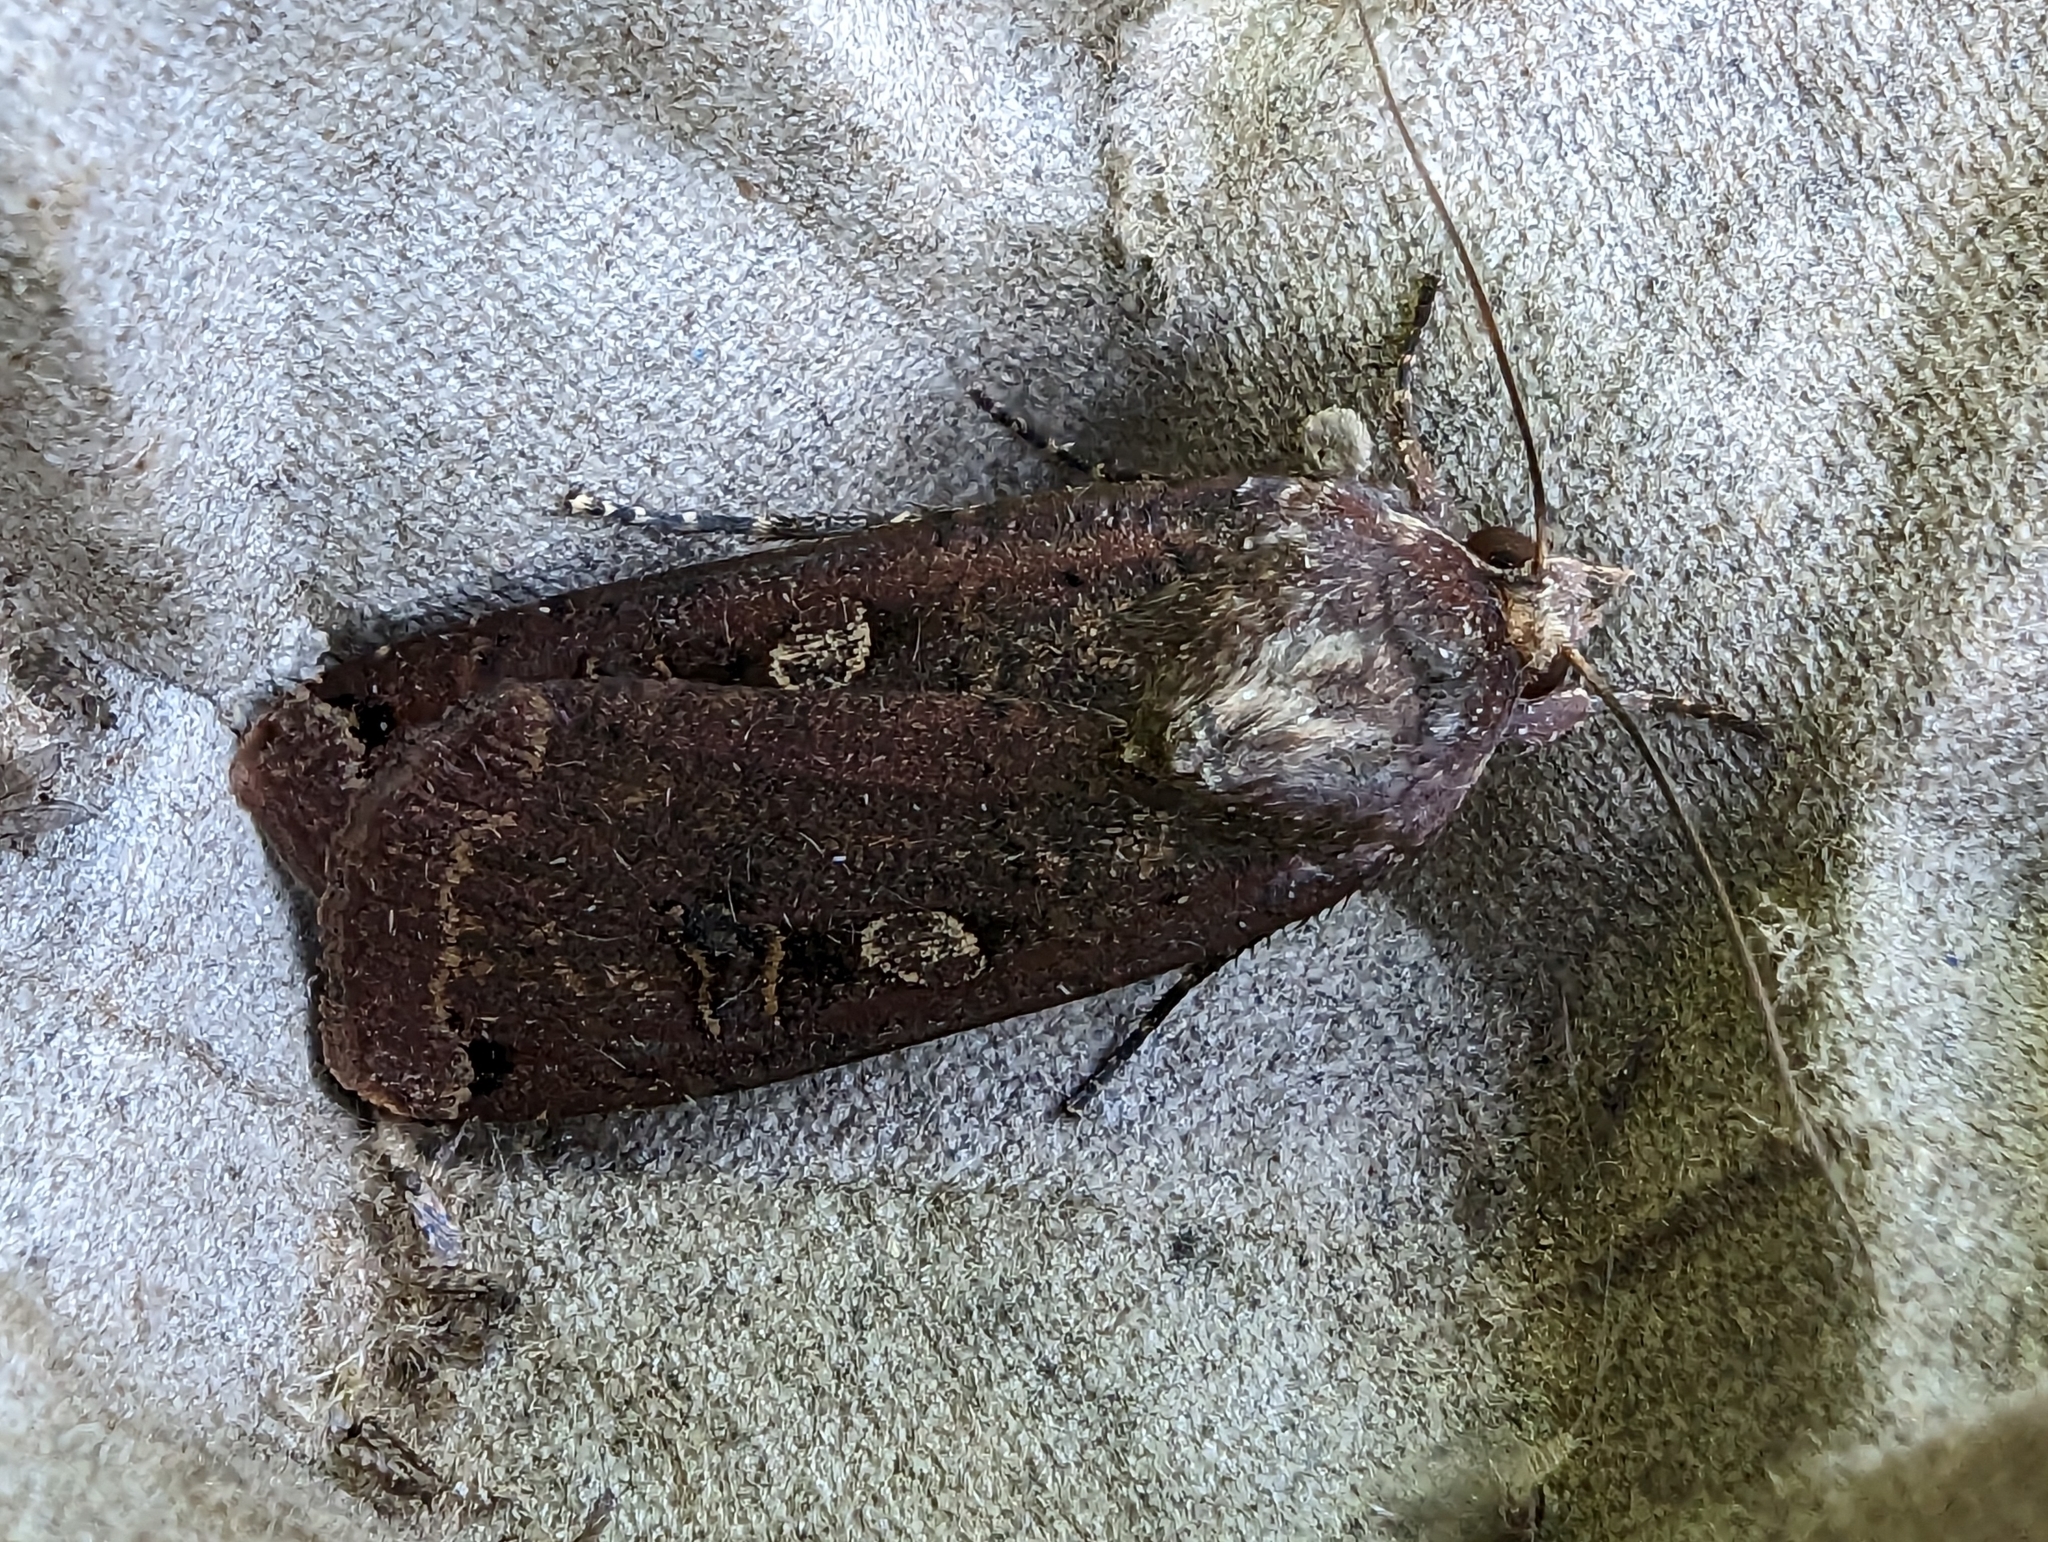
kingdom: Animalia
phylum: Arthropoda
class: Insecta
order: Lepidoptera
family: Noctuidae
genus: Noctua
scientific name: Noctua pronuba
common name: Large yellow underwing
